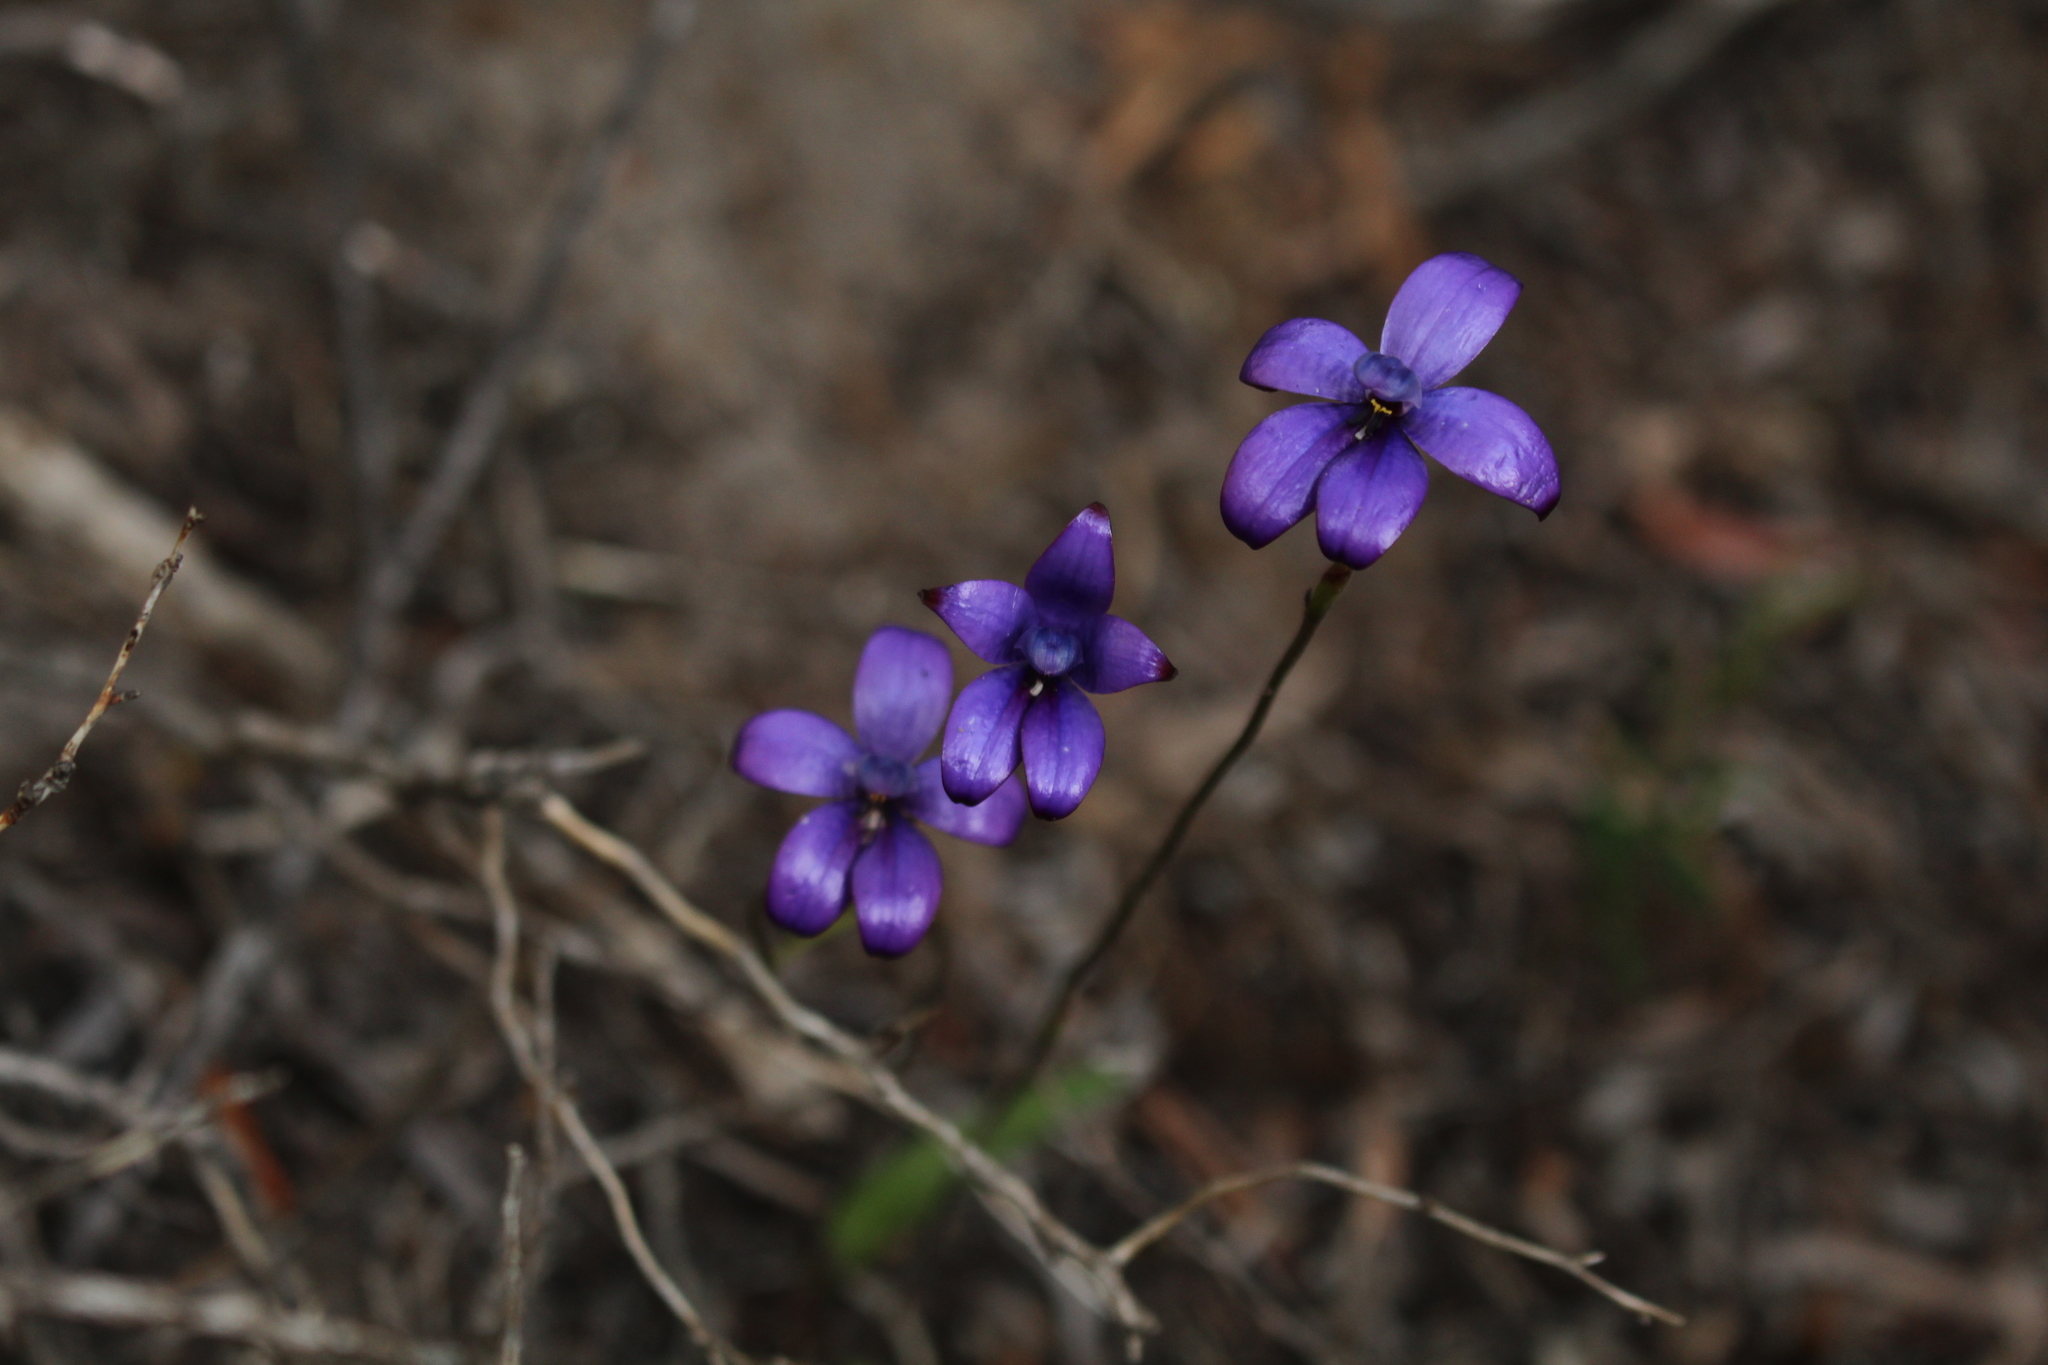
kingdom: Plantae
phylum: Tracheophyta
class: Liliopsida
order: Asparagales
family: Orchidaceae
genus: Caladenia
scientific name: Caladenia brunonis
